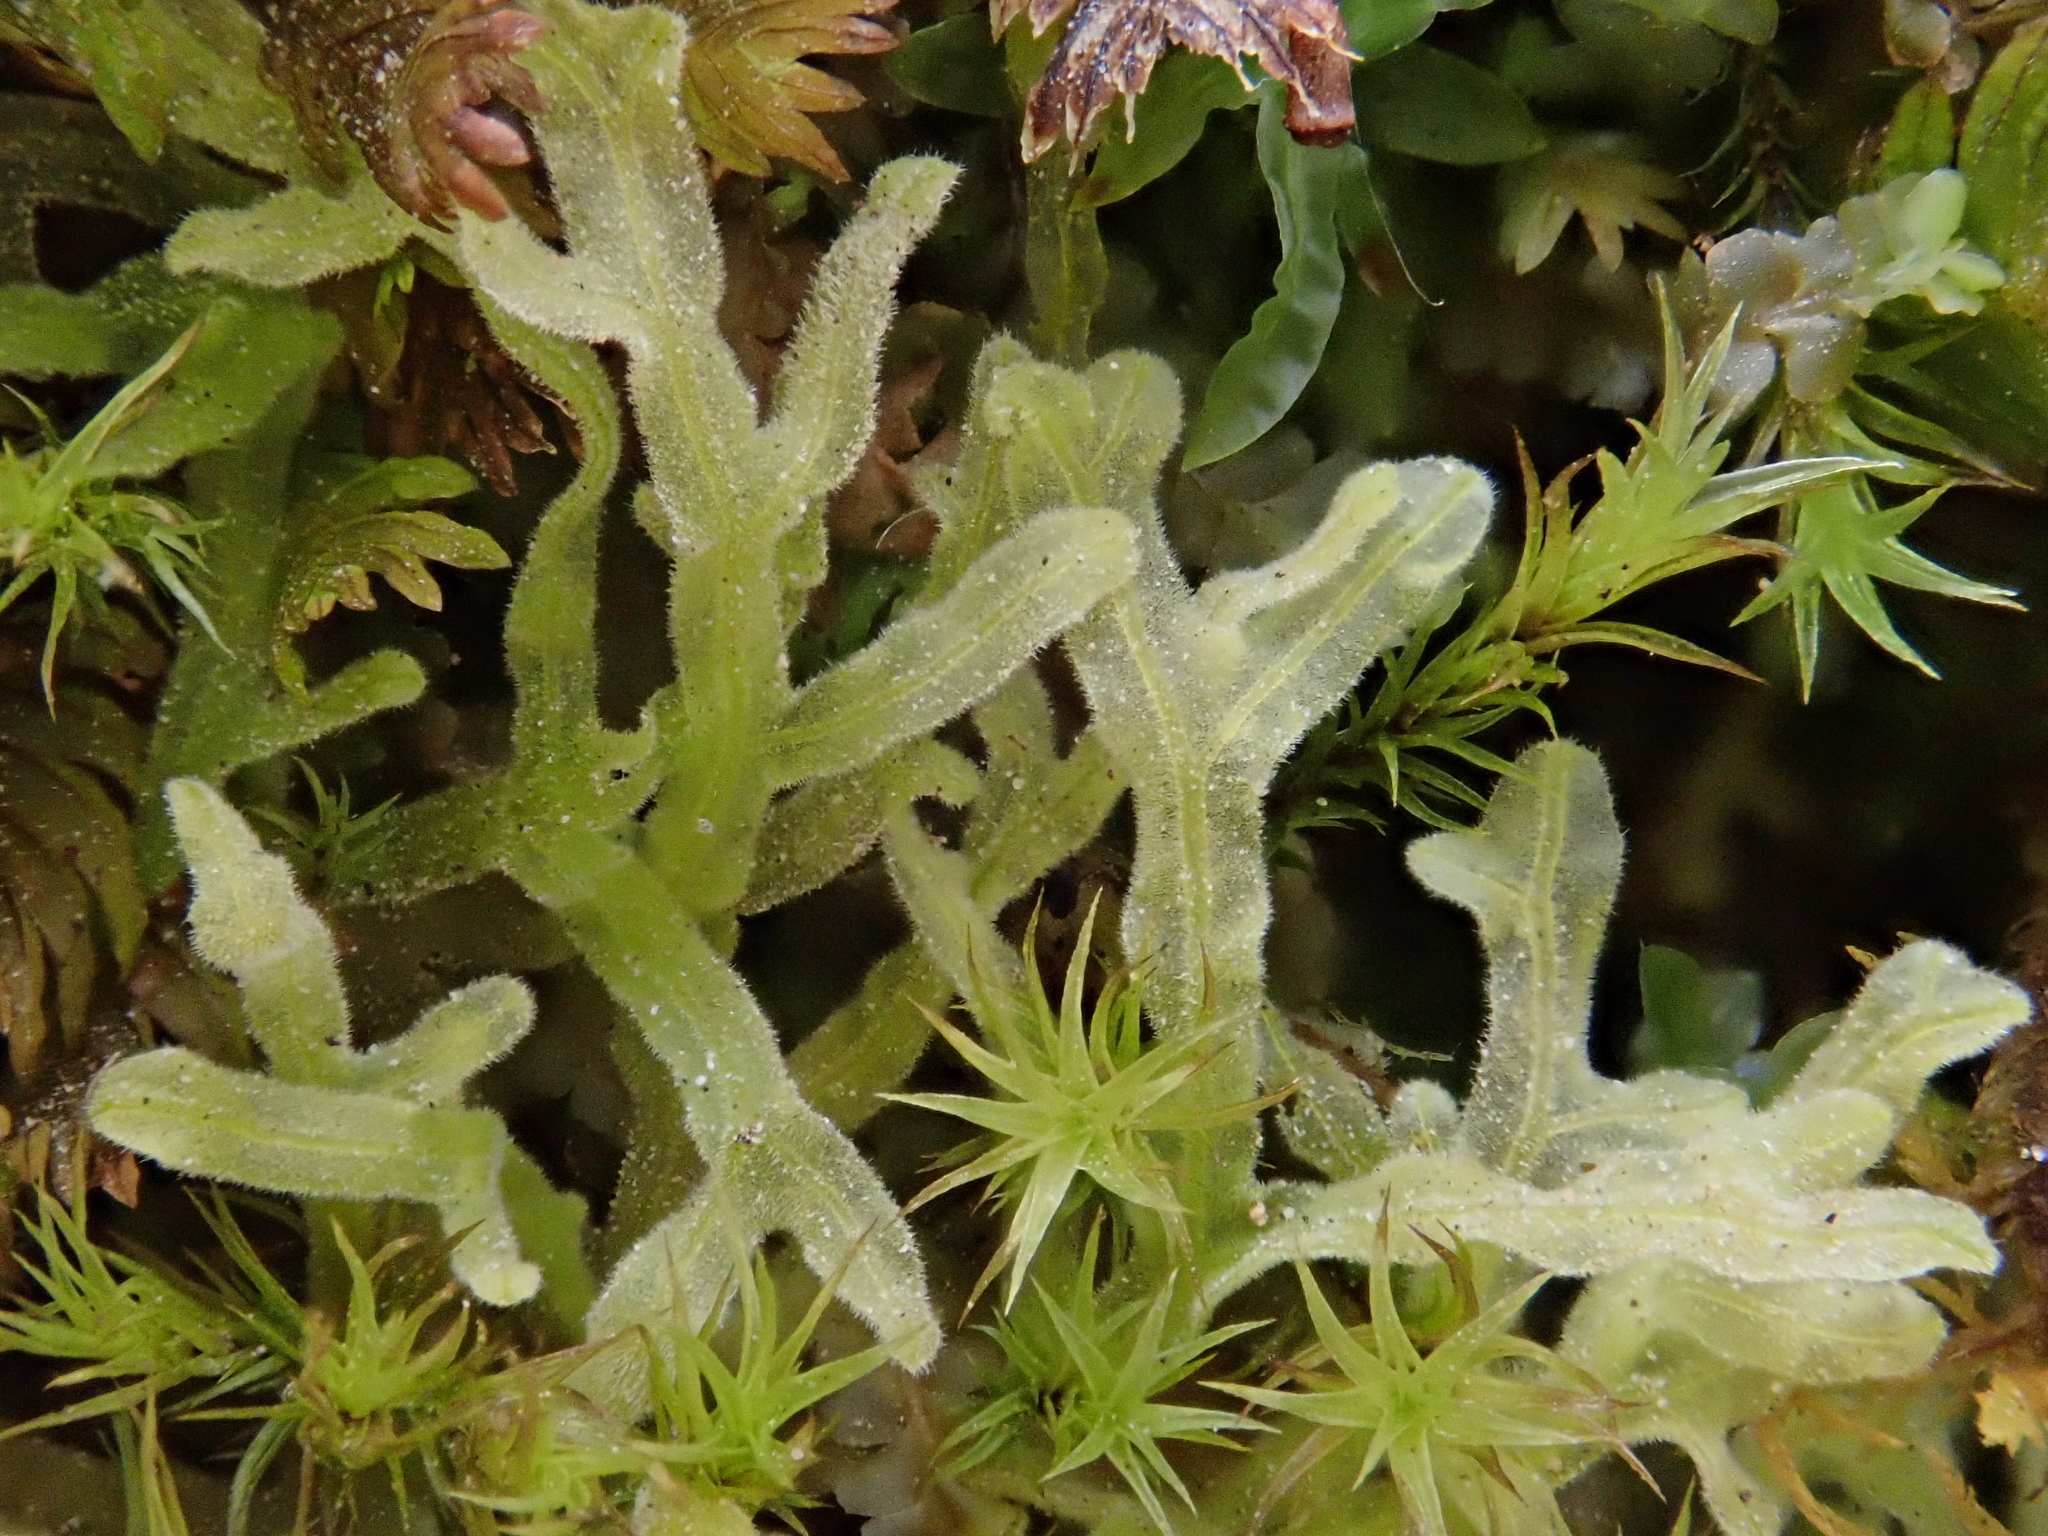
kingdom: Plantae
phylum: Marchantiophyta
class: Jungermanniopsida
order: Metzgeriales
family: Metzgeriaceae
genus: Metzgeria
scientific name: Metzgeria pubescens
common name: Downy veilwort
